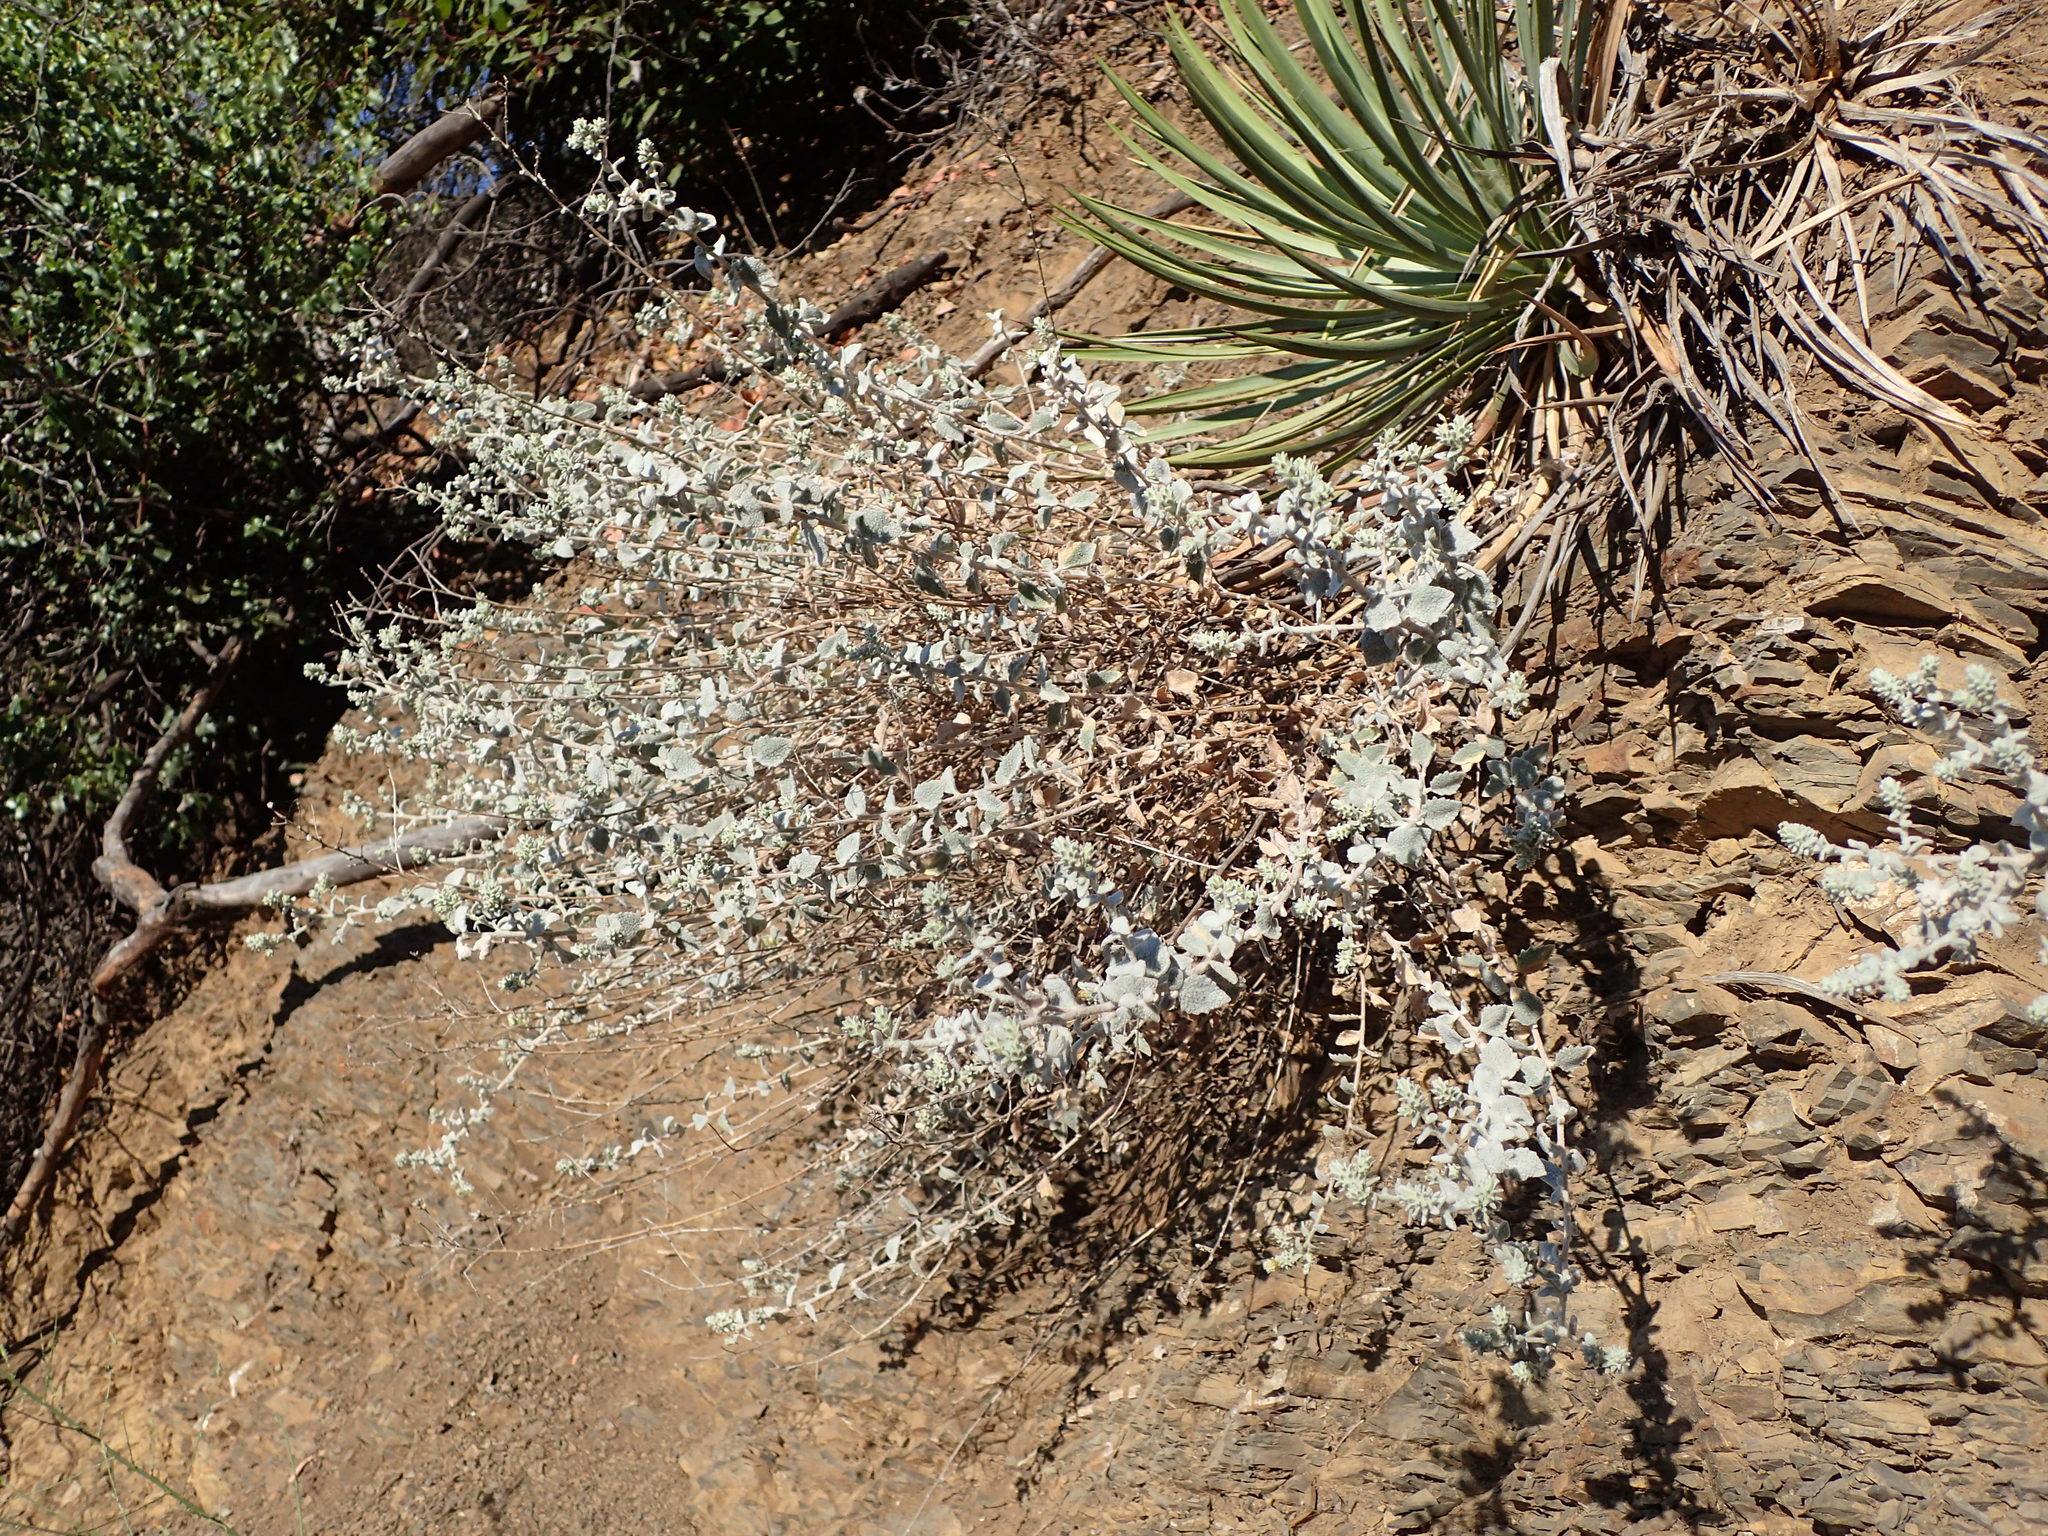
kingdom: Plantae
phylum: Tracheophyta
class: Magnoliopsida
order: Asterales
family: Asteraceae
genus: Brickellia
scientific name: Brickellia nevinii
